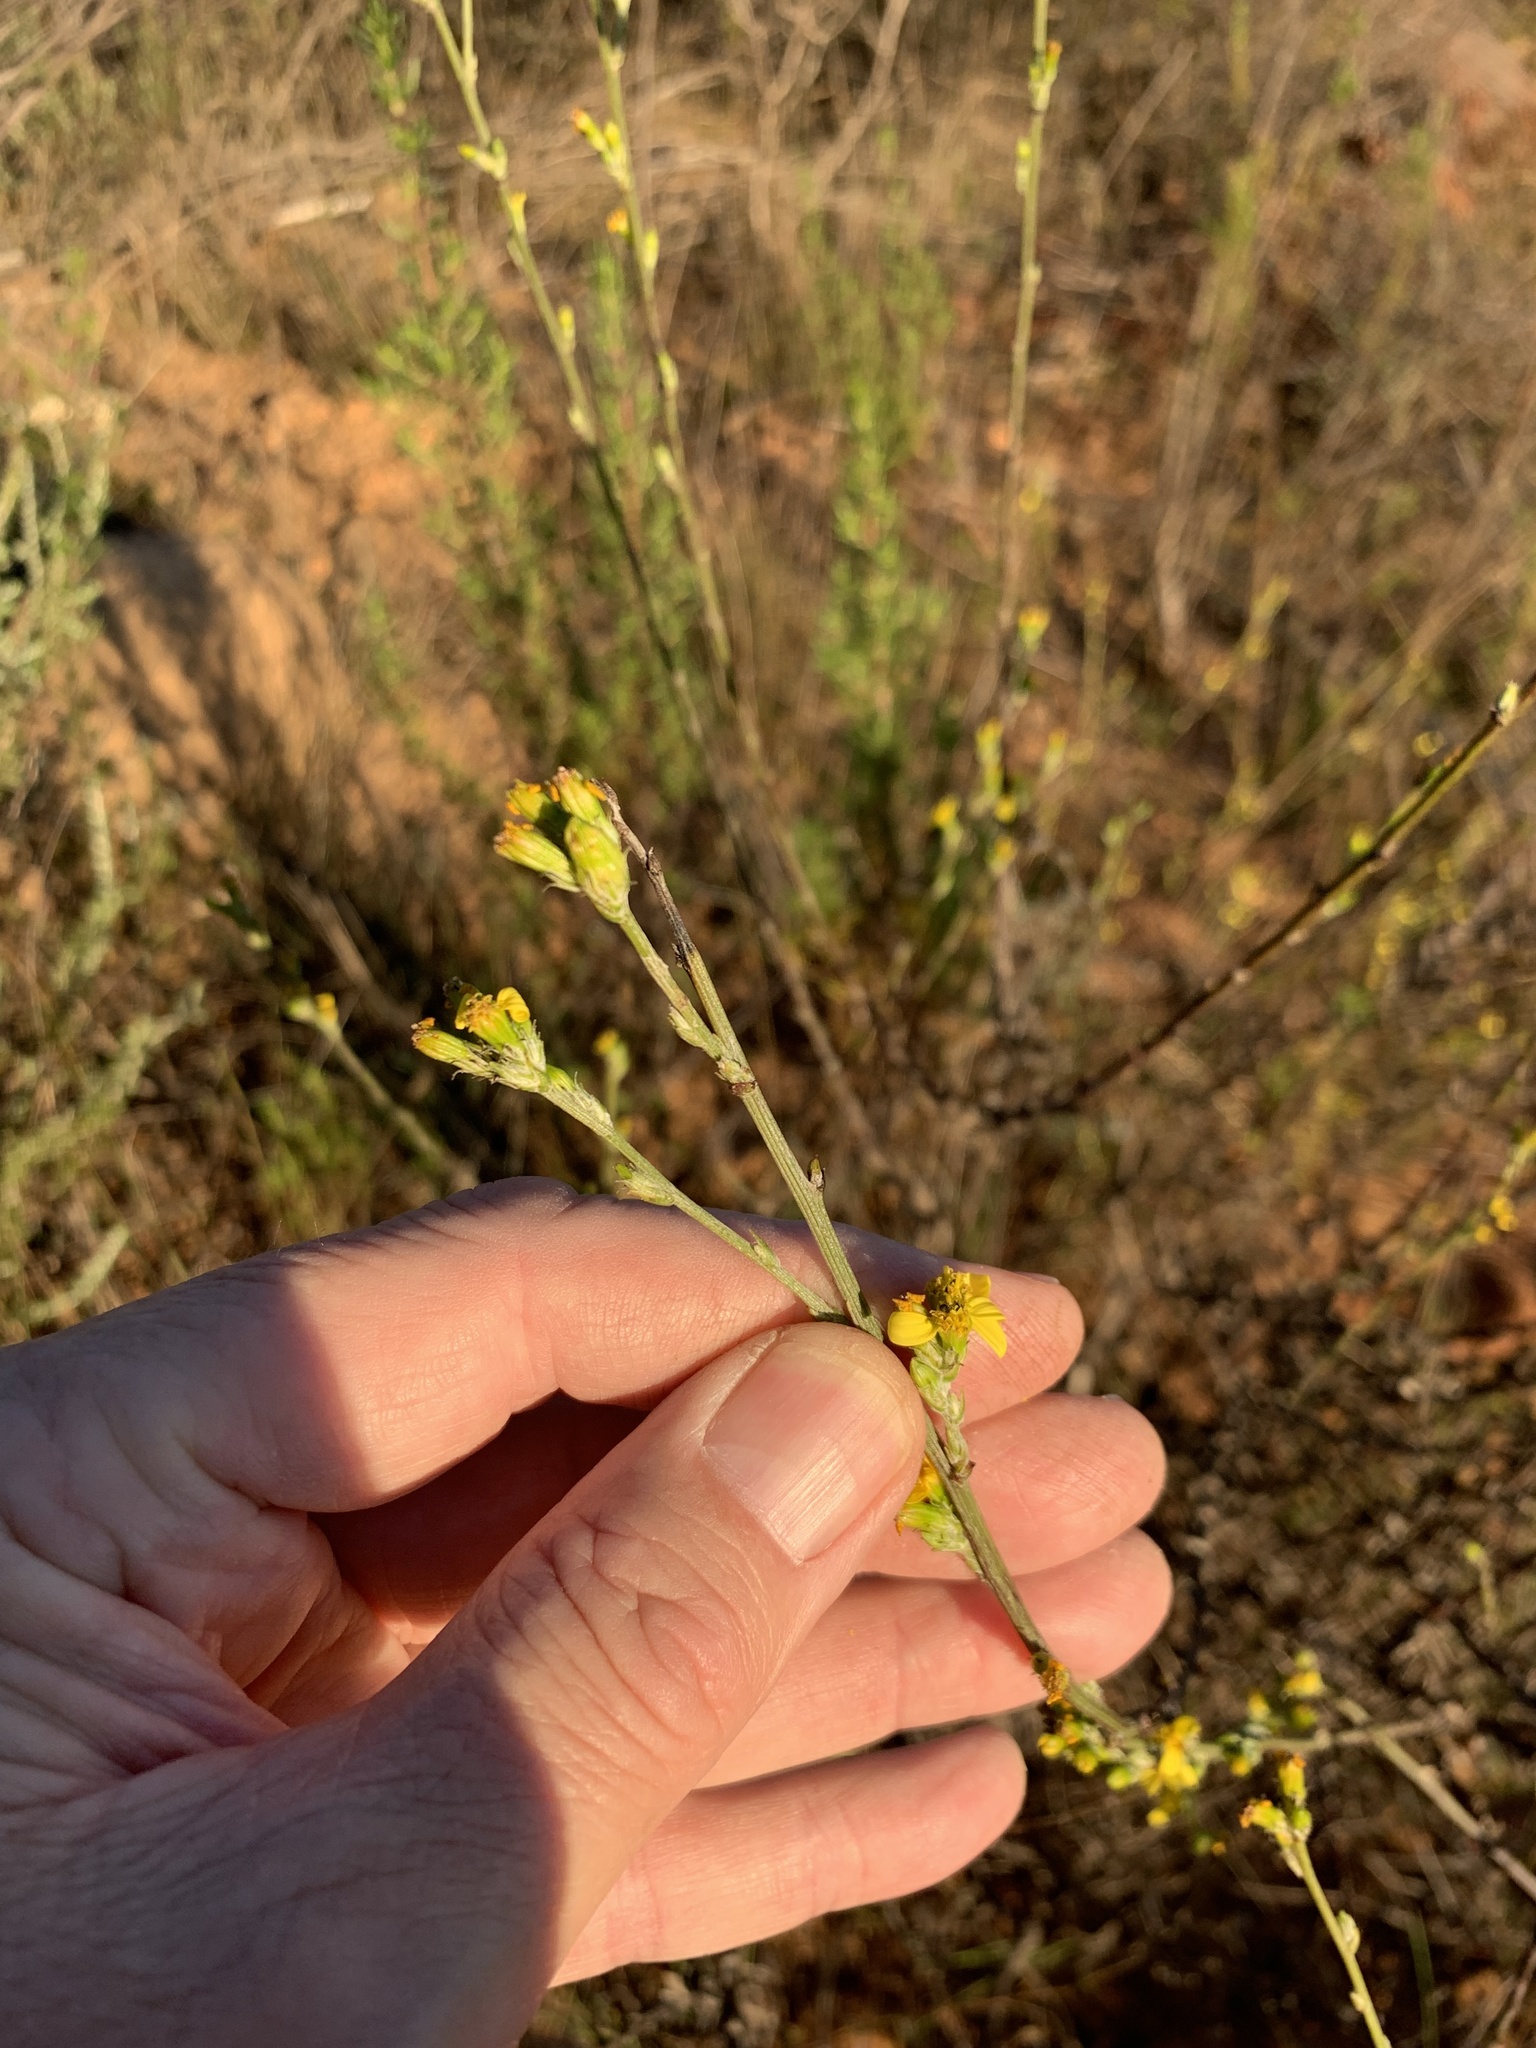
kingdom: Plantae
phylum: Tracheophyta
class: Magnoliopsida
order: Asterales
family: Asteraceae
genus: Senecio
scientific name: Senecio pubigerus
